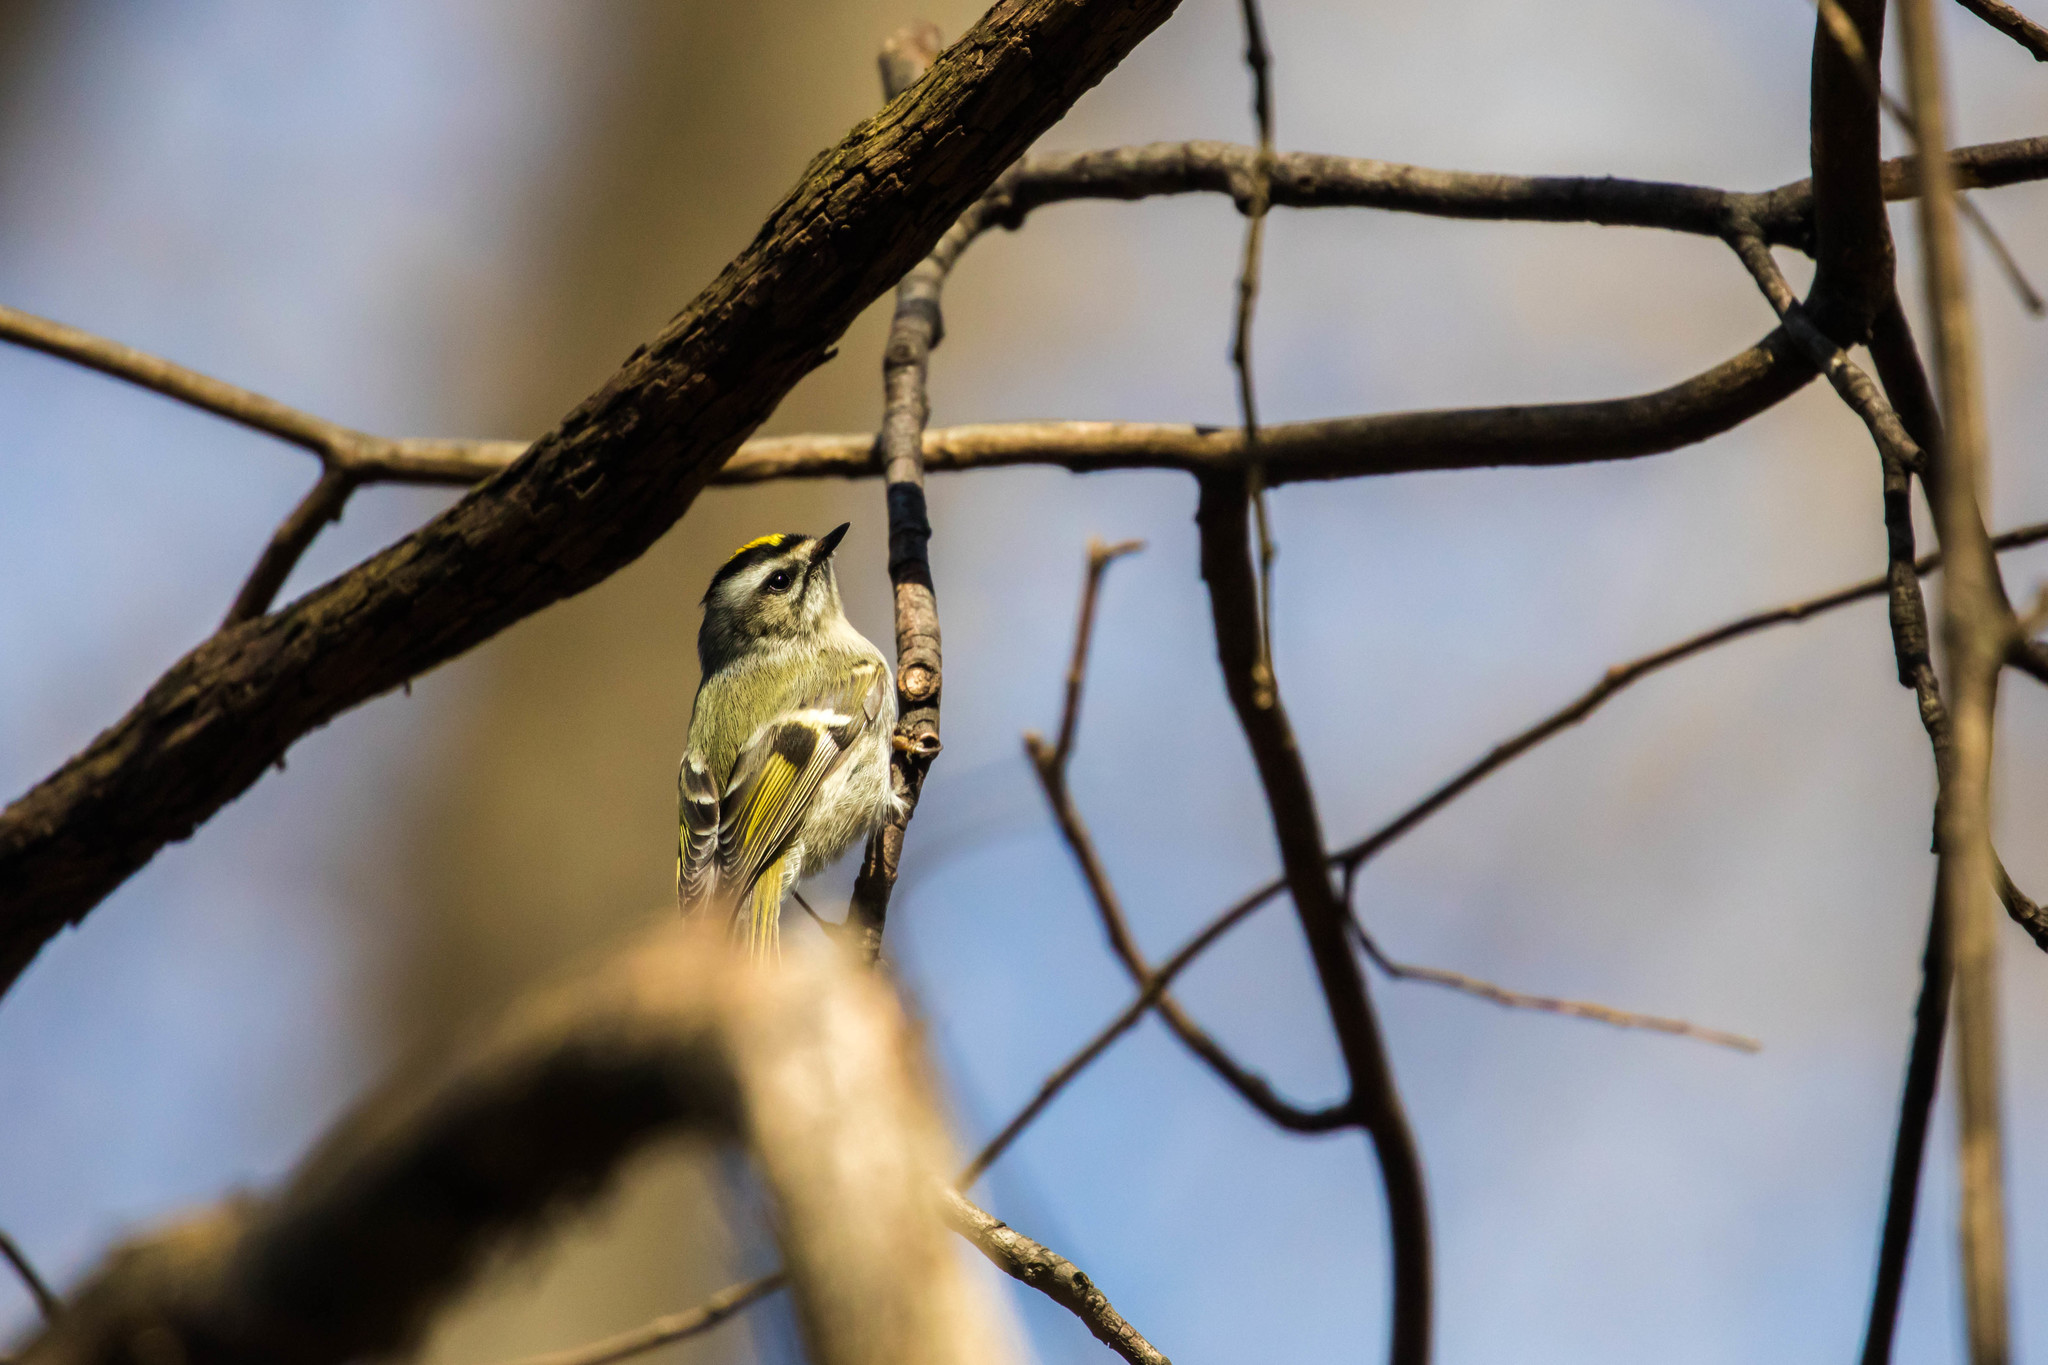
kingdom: Animalia
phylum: Chordata
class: Aves
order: Passeriformes
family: Regulidae
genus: Regulus
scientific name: Regulus satrapa
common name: Golden-crowned kinglet
